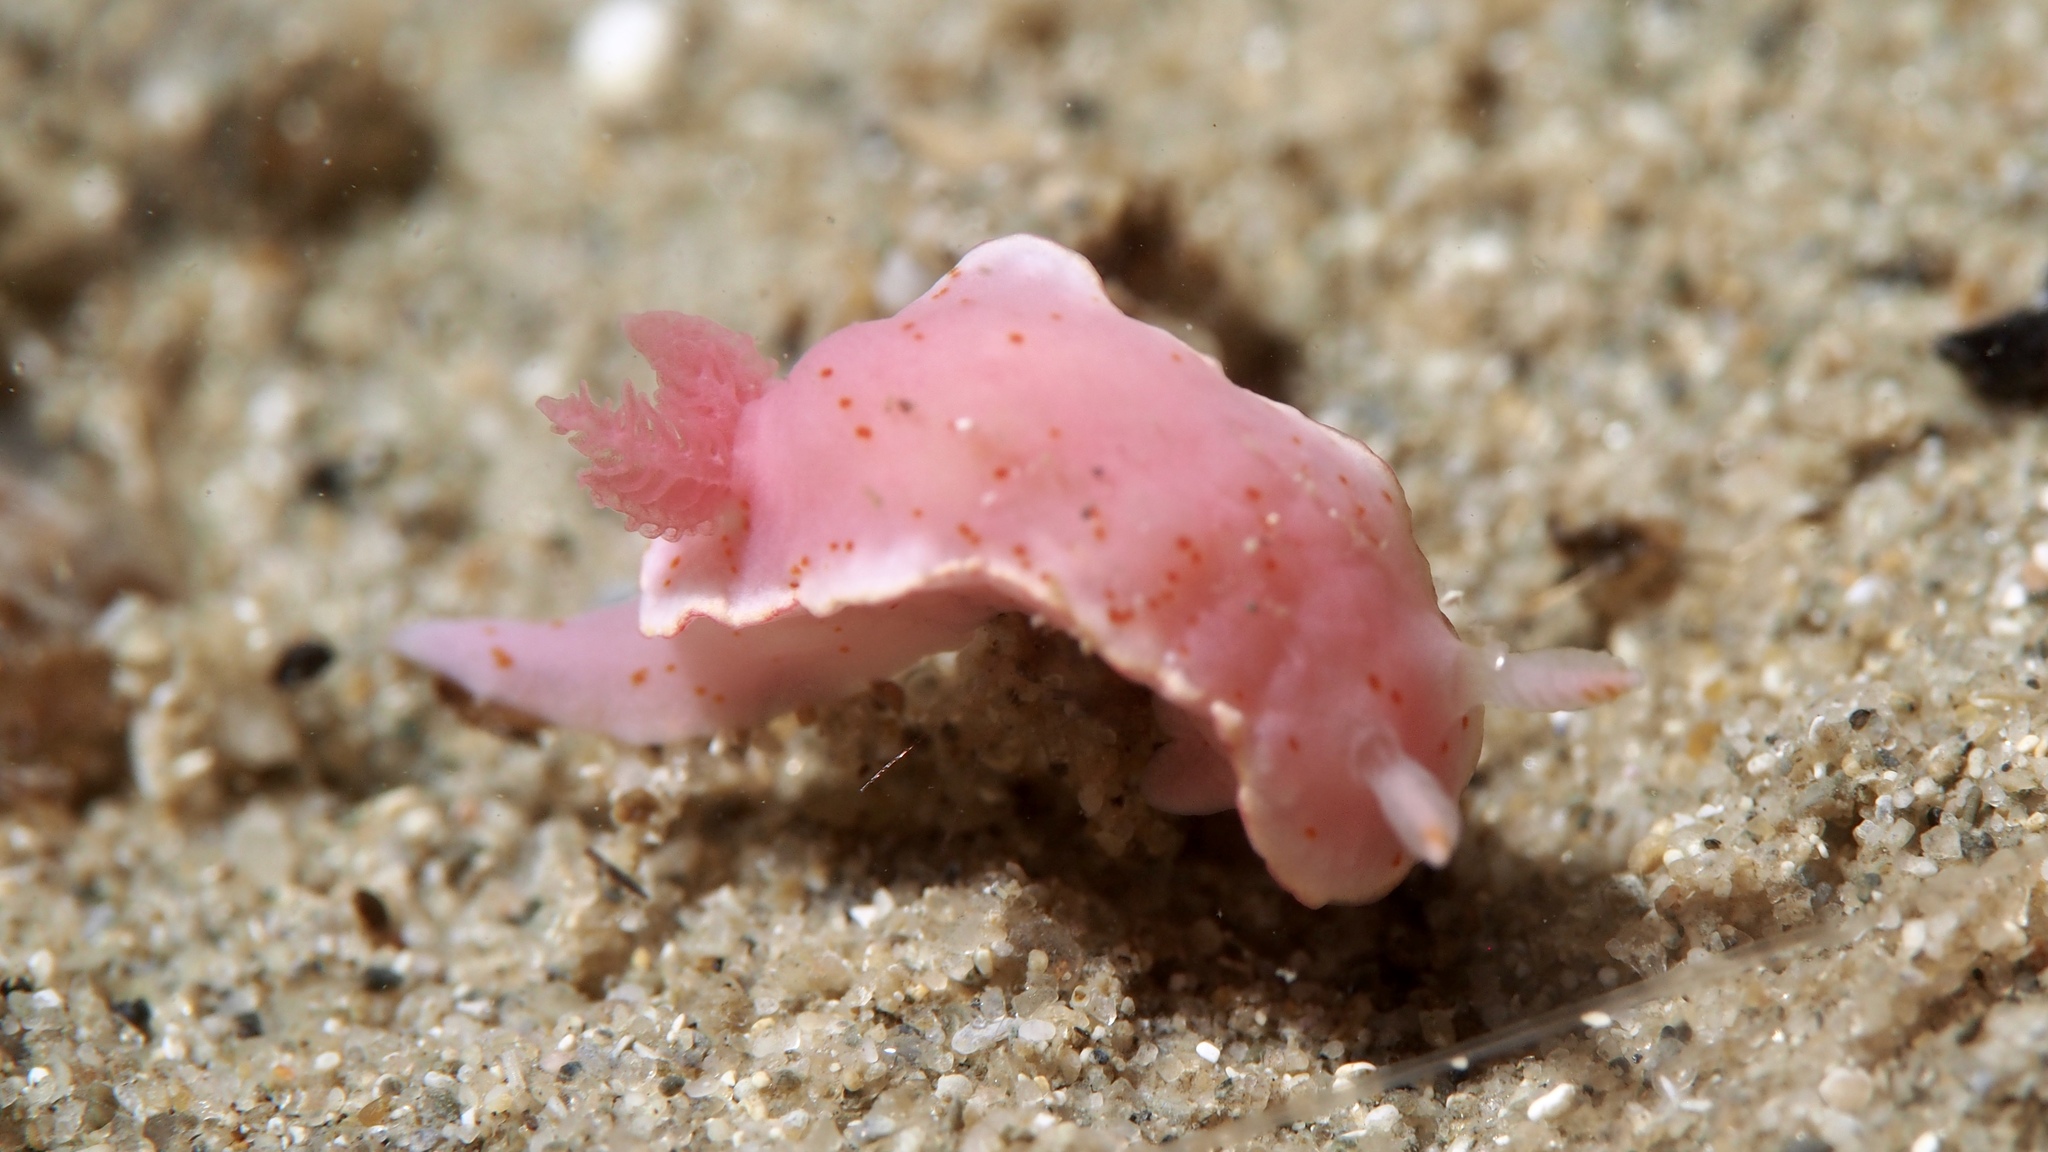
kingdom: Animalia
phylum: Mollusca
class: Gastropoda
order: Nudibranchia
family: Chromodorididae
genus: Verconia
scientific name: Verconia haliclona
